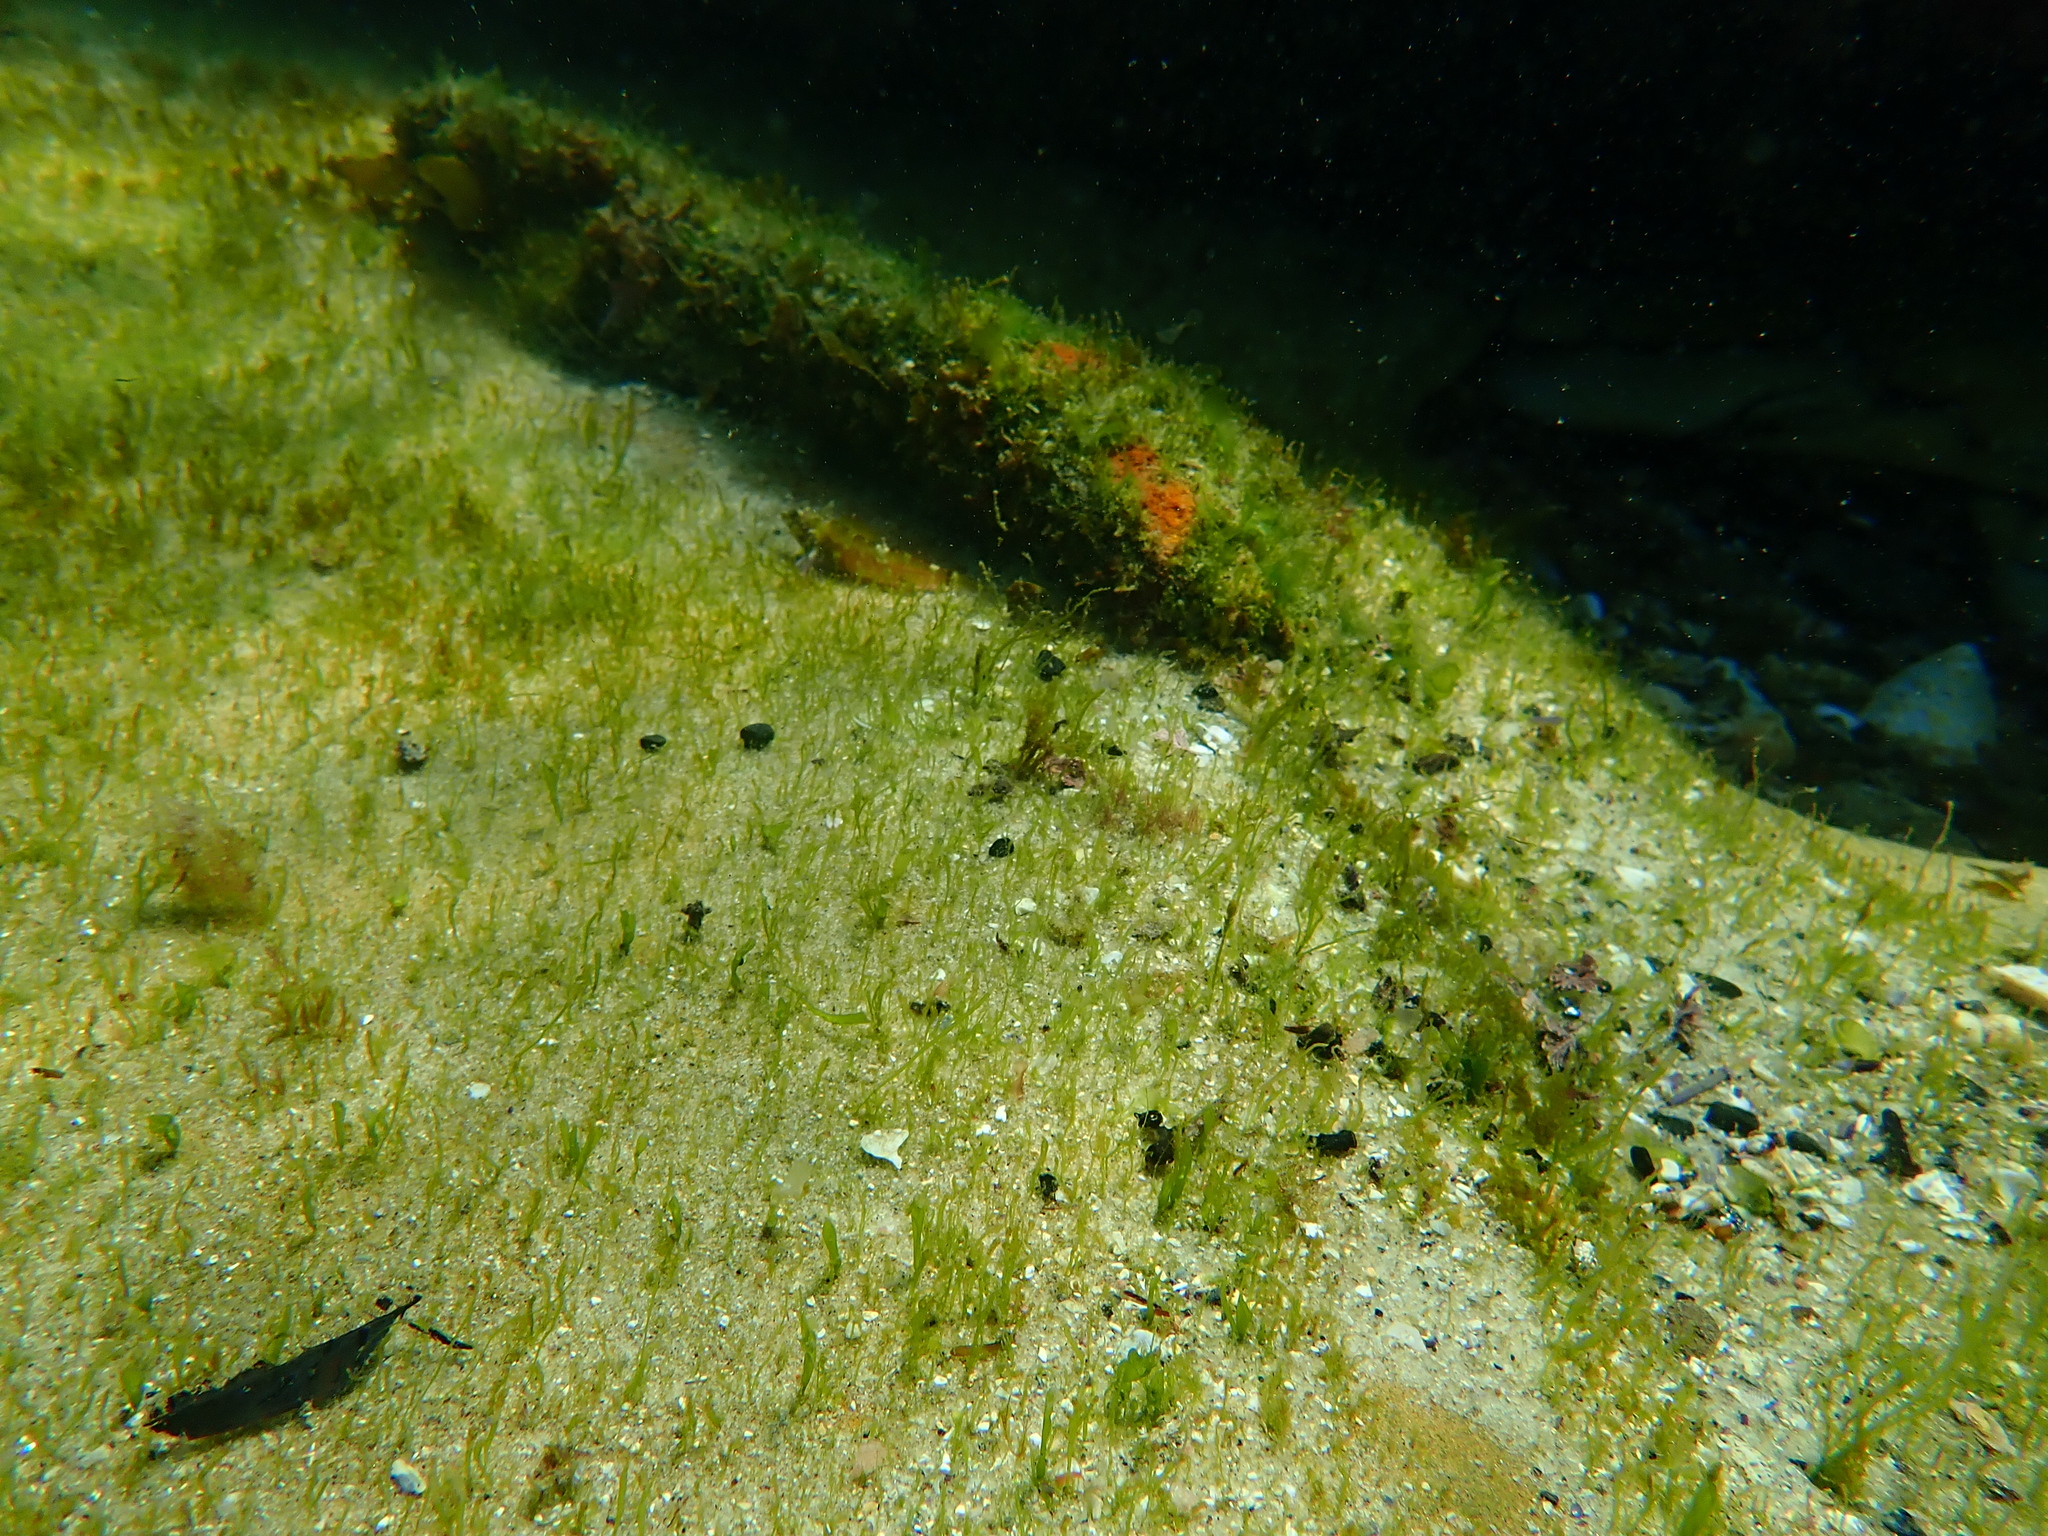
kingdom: Animalia
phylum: Chordata
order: Perciformes
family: Tripterygiidae
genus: Enneapterygius
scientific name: Enneapterygius atrogulare
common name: Blackthroat triplefin
